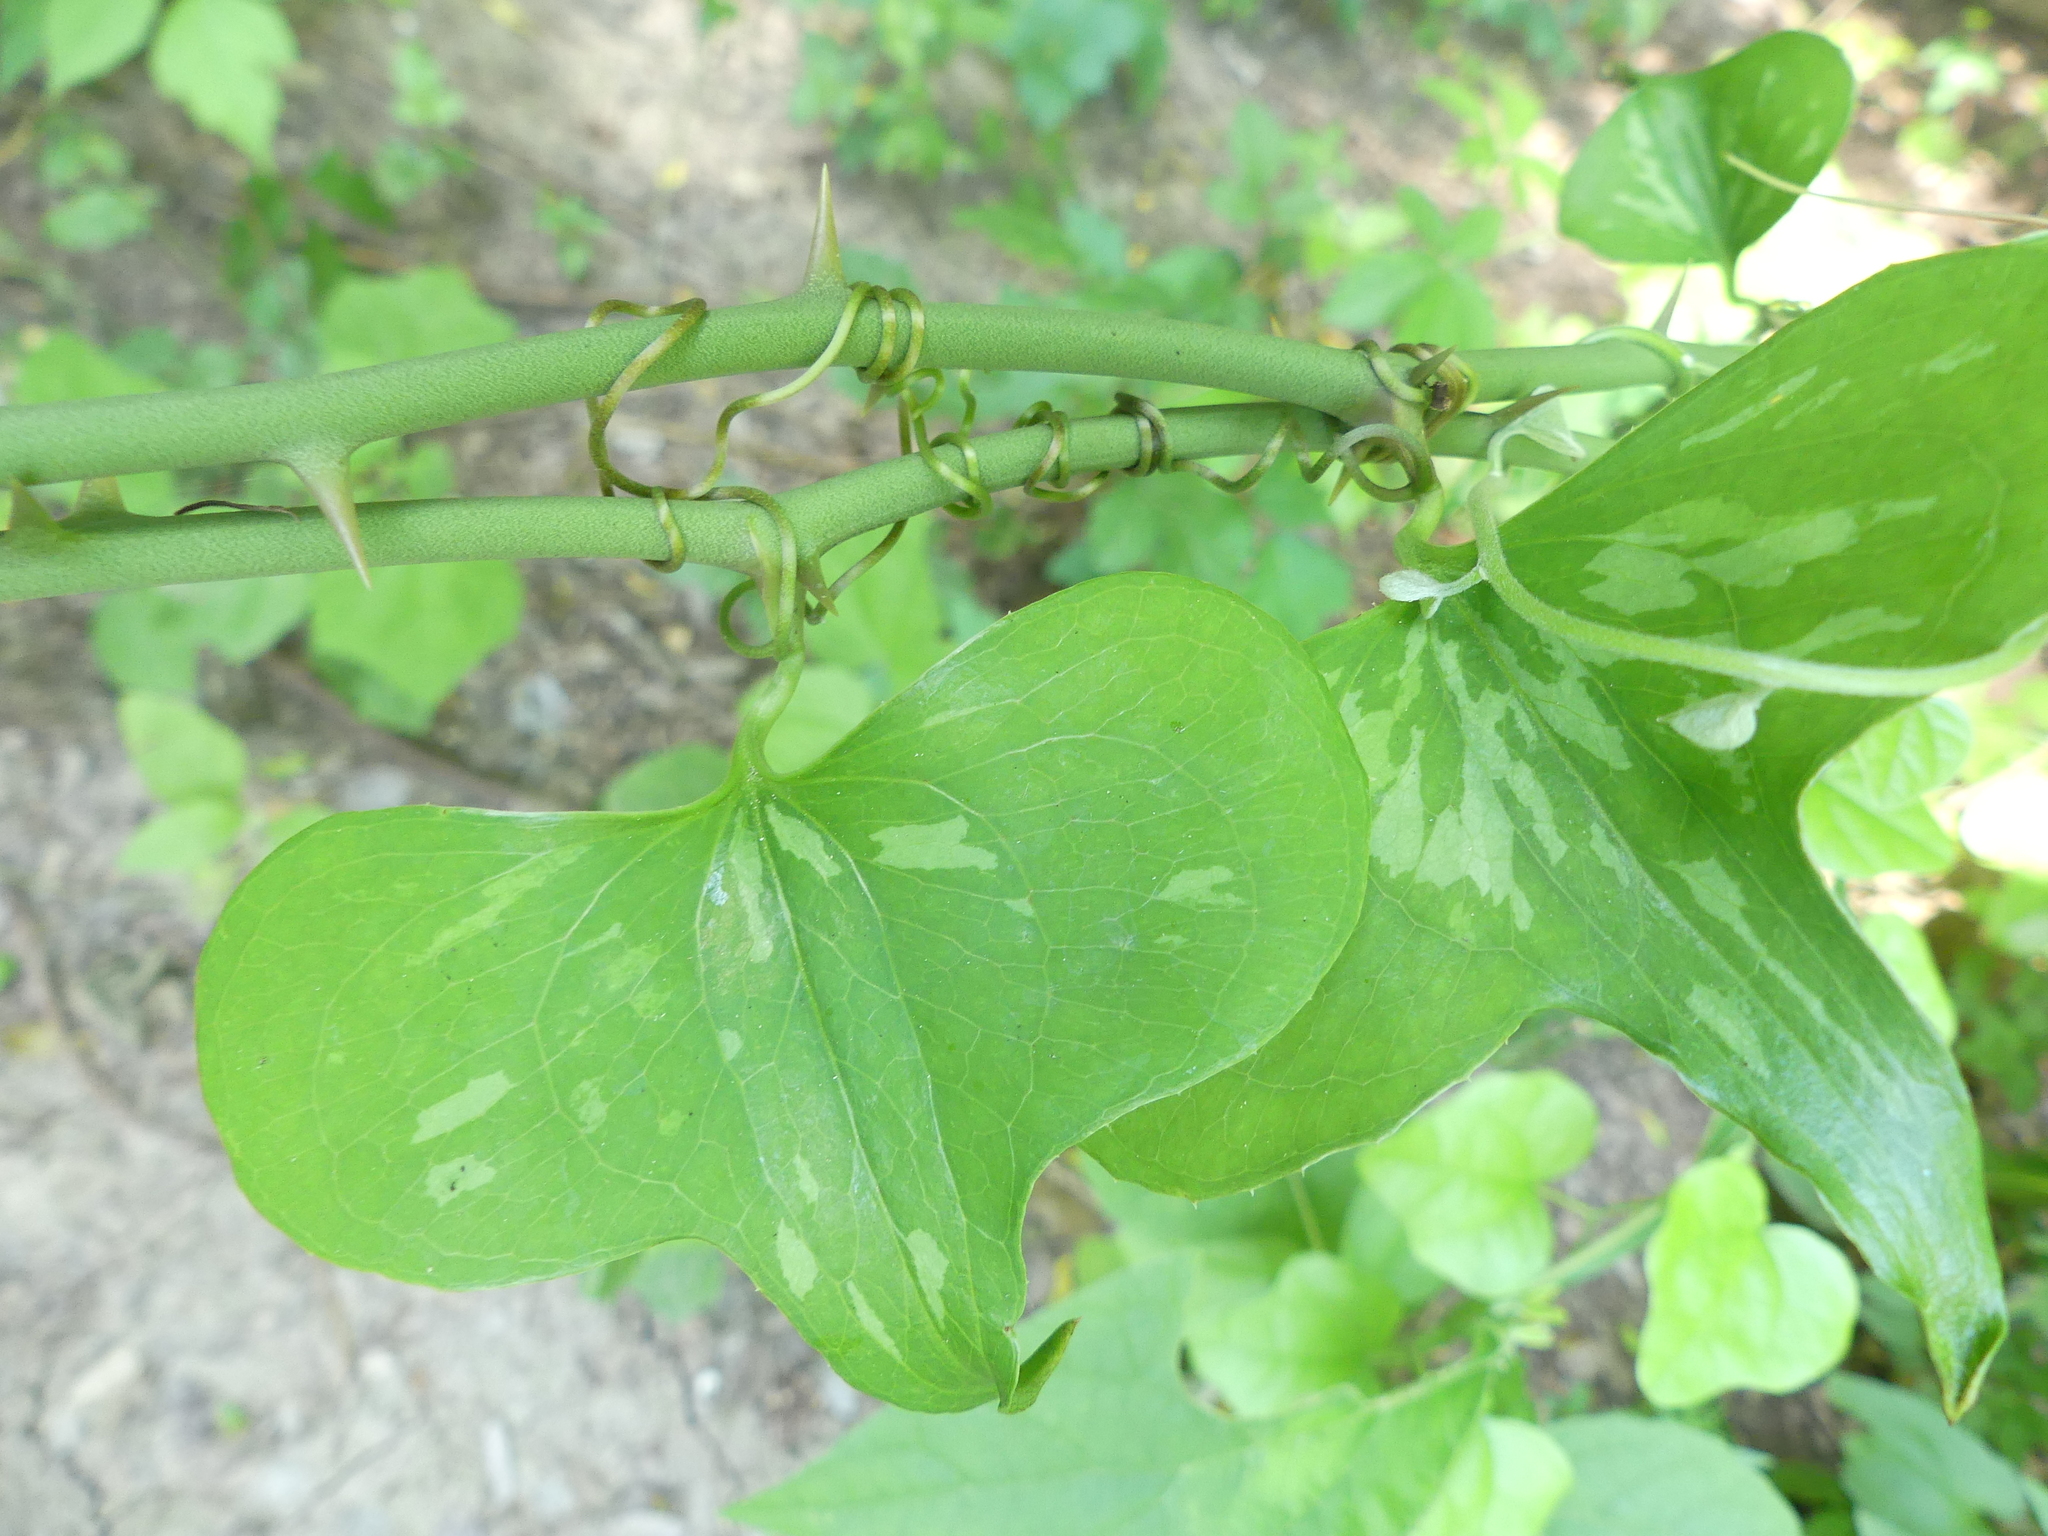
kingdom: Plantae
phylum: Tracheophyta
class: Liliopsida
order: Liliales
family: Smilacaceae
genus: Smilax
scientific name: Smilax bona-nox
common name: Catbrier
